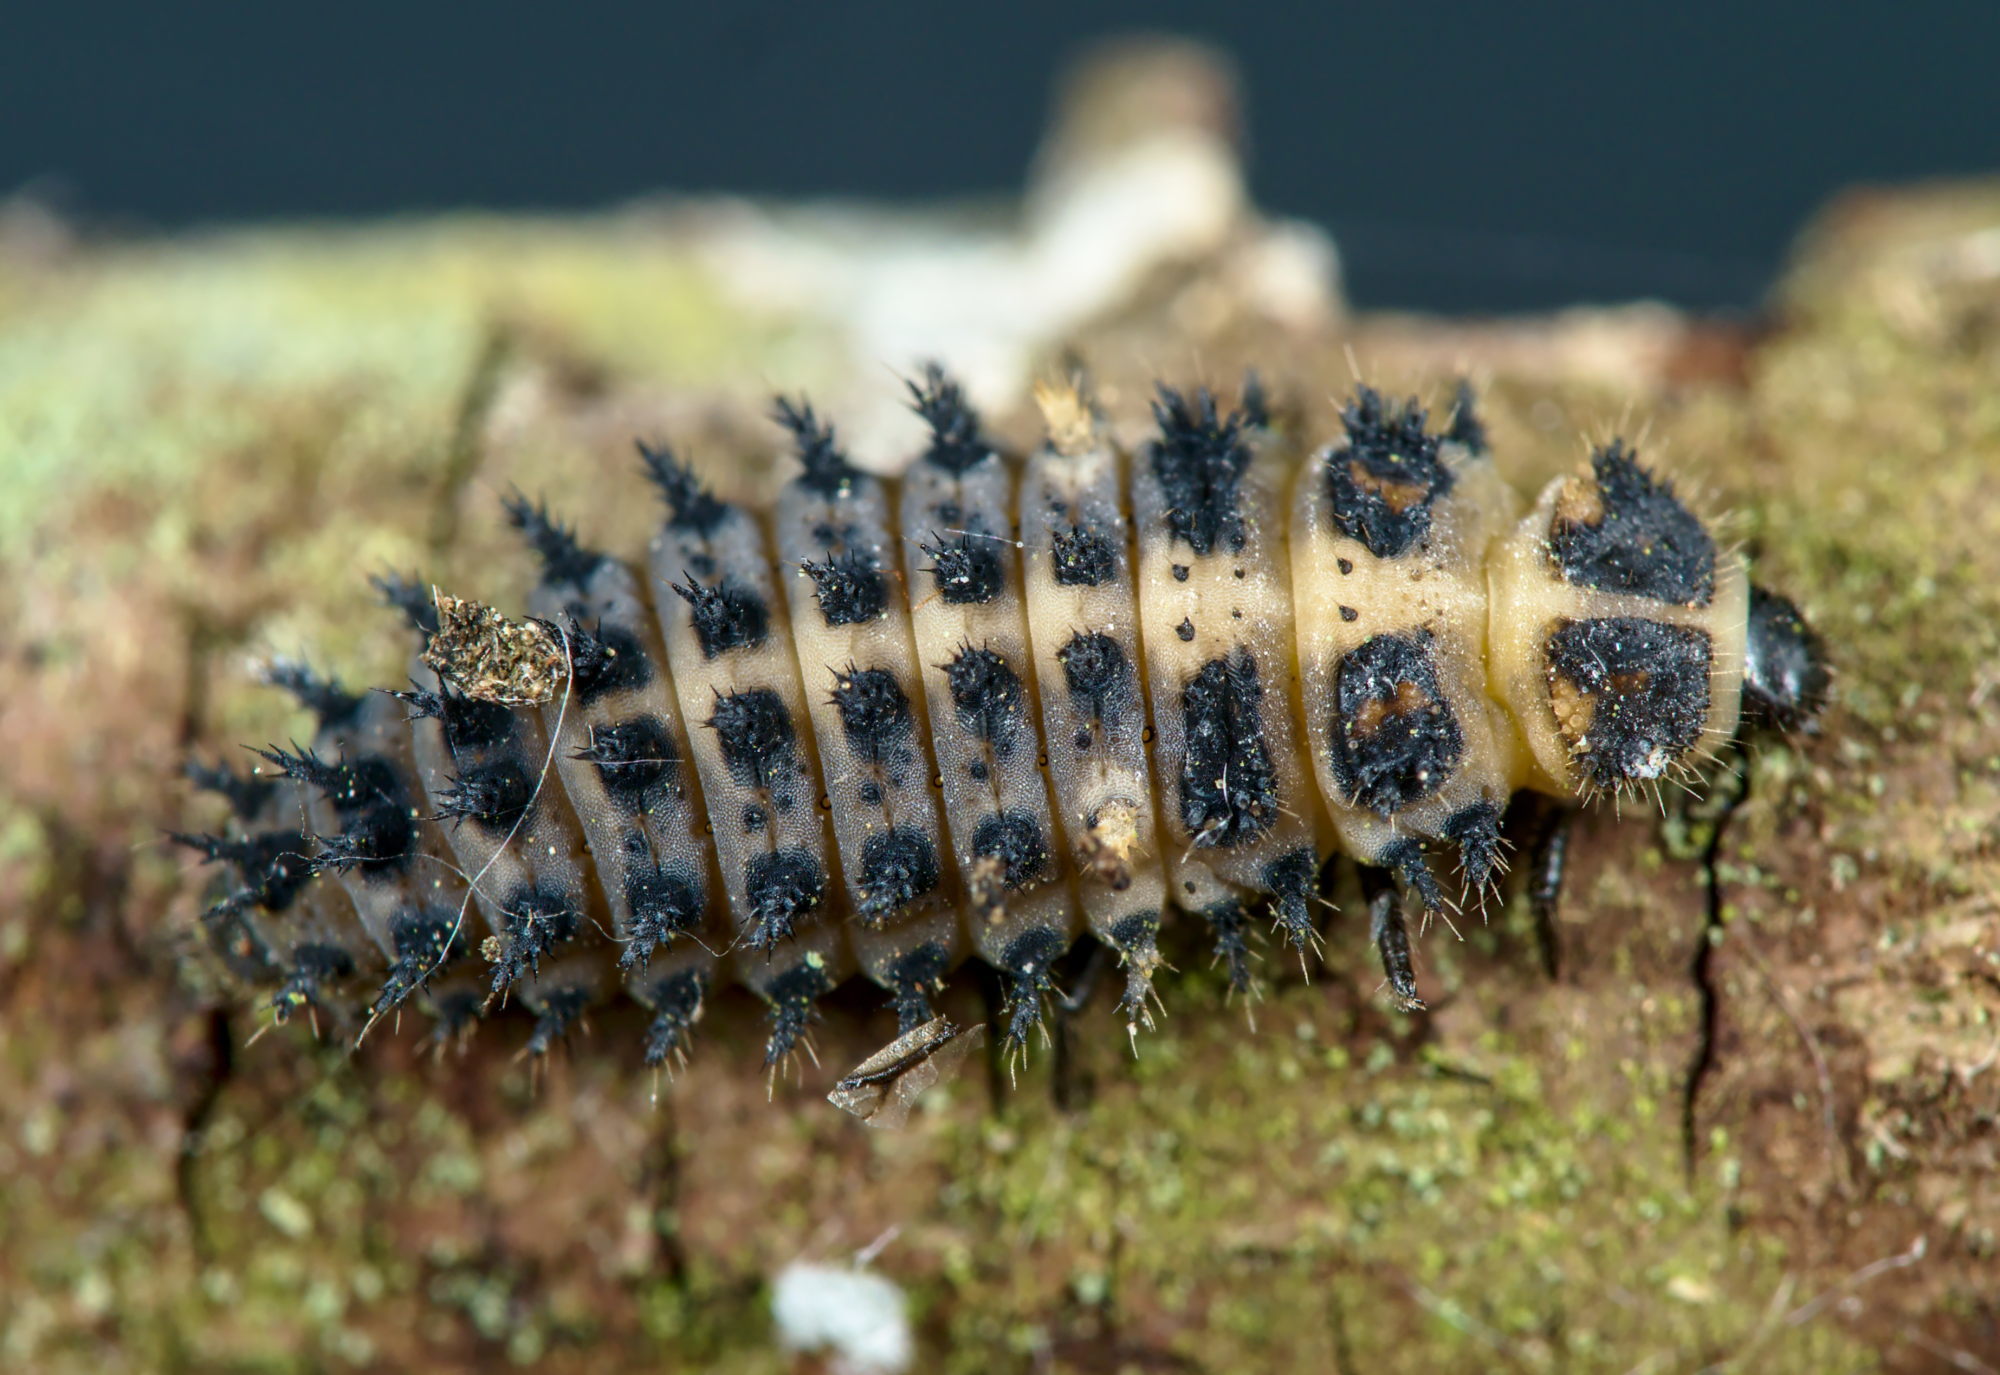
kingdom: Animalia
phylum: Arthropoda
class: Insecta
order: Coleoptera
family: Coccinellidae
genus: Brumus
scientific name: Brumus quadripustulatus
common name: Ladybird beetle
